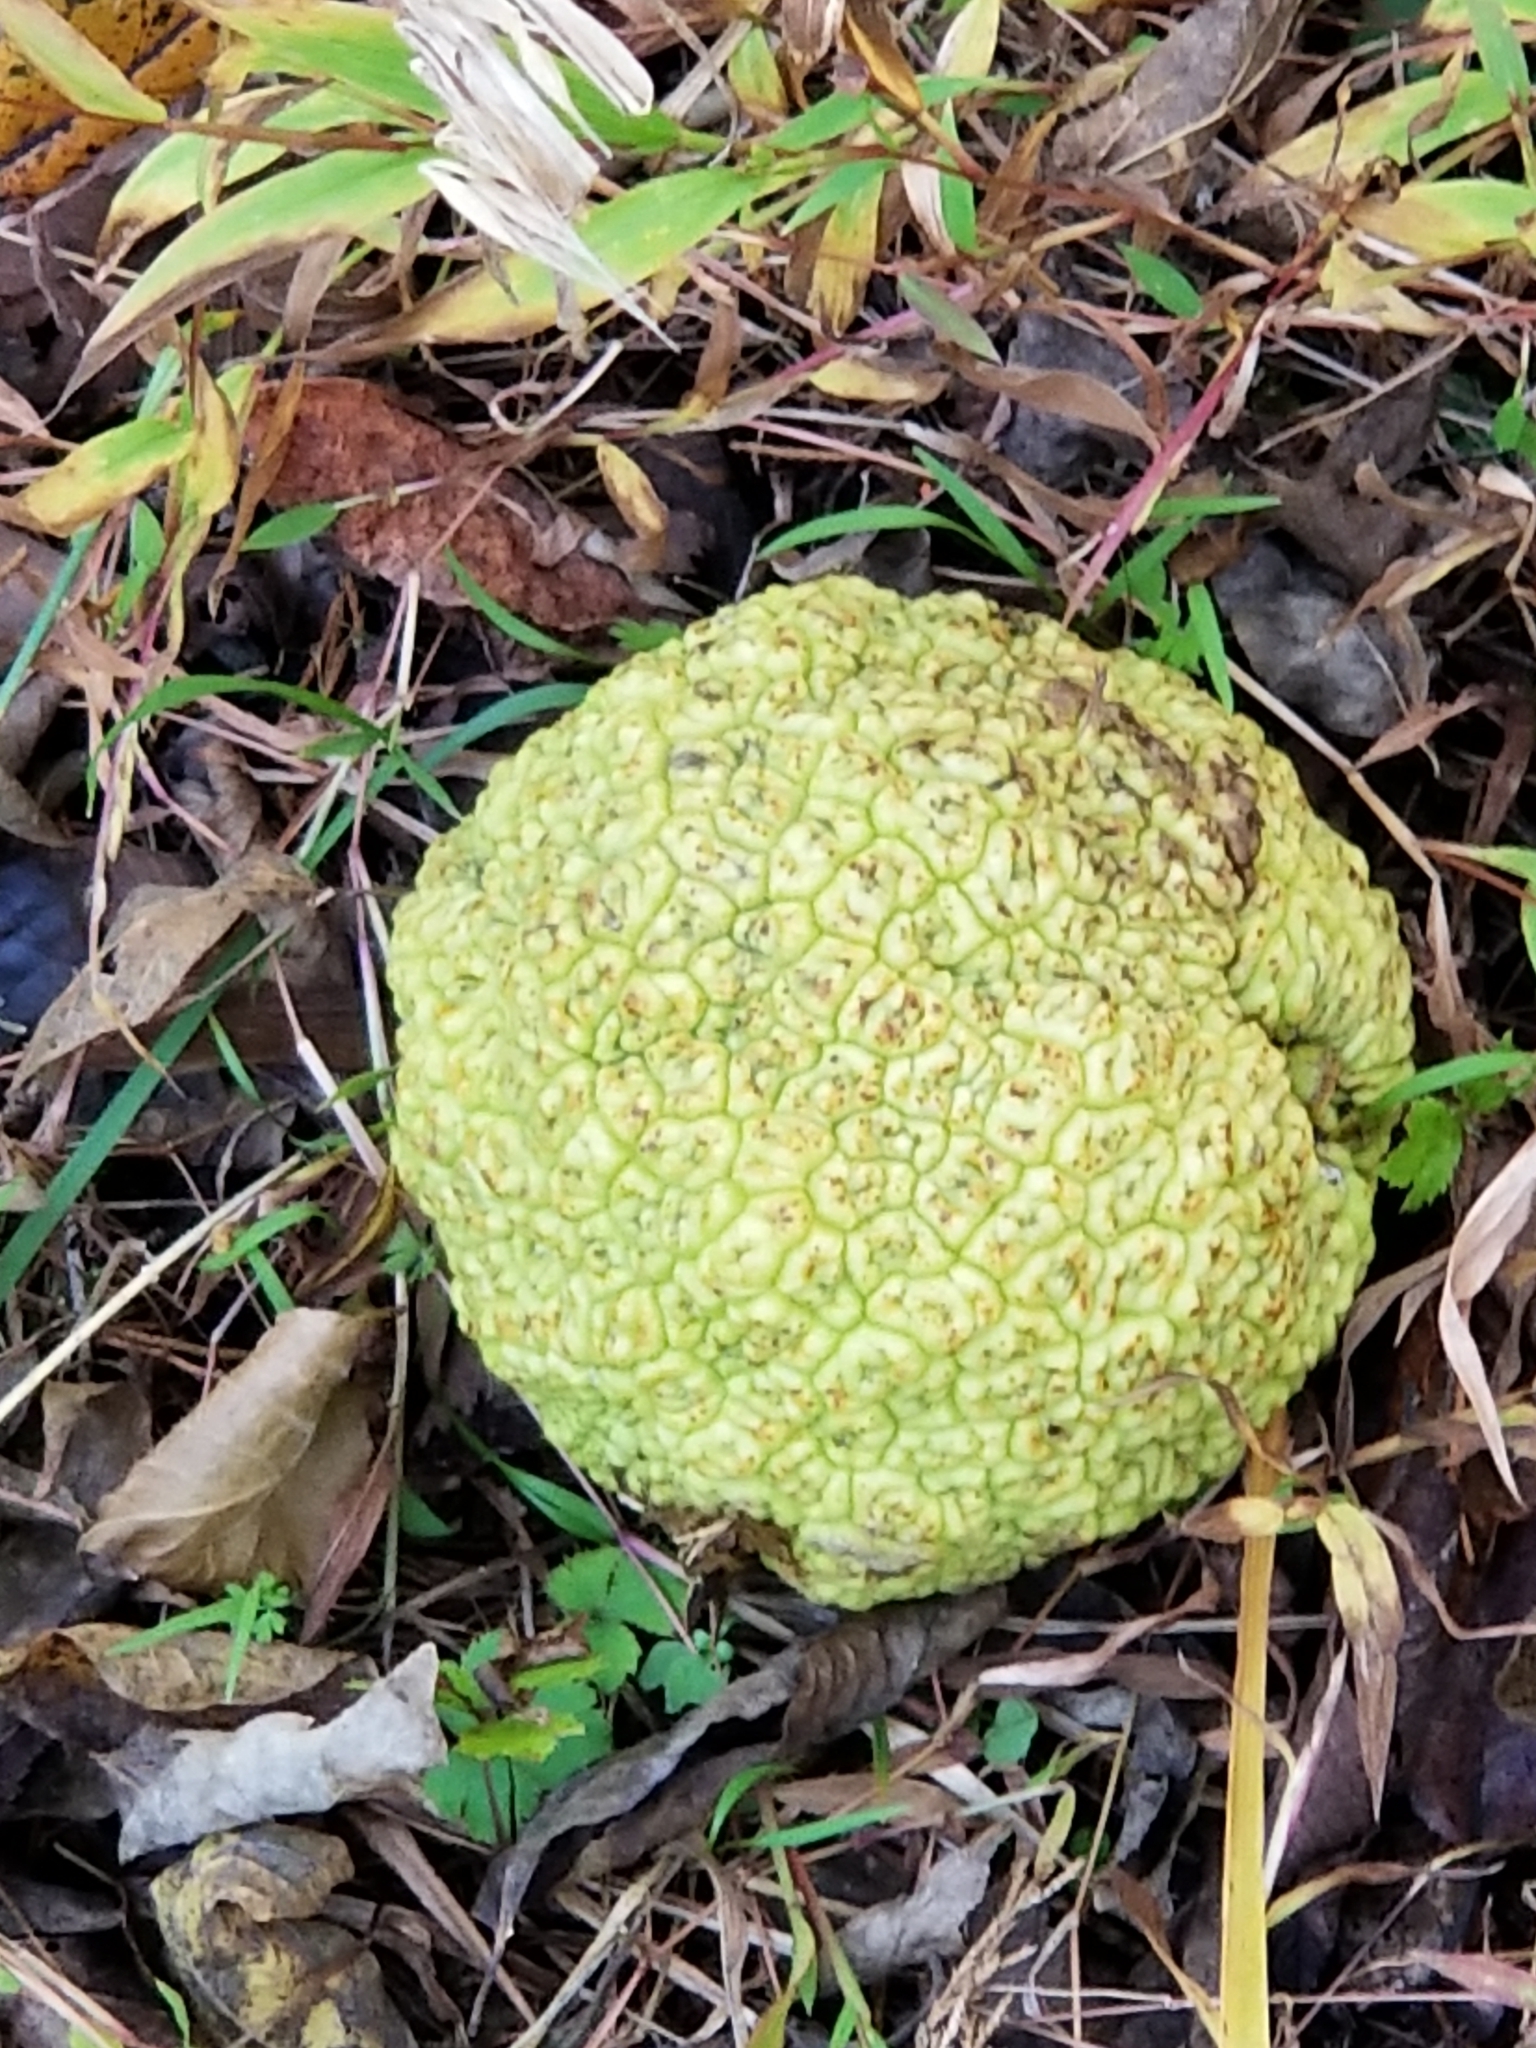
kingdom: Plantae
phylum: Tracheophyta
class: Magnoliopsida
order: Rosales
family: Moraceae
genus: Maclura
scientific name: Maclura pomifera
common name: Osage-orange
